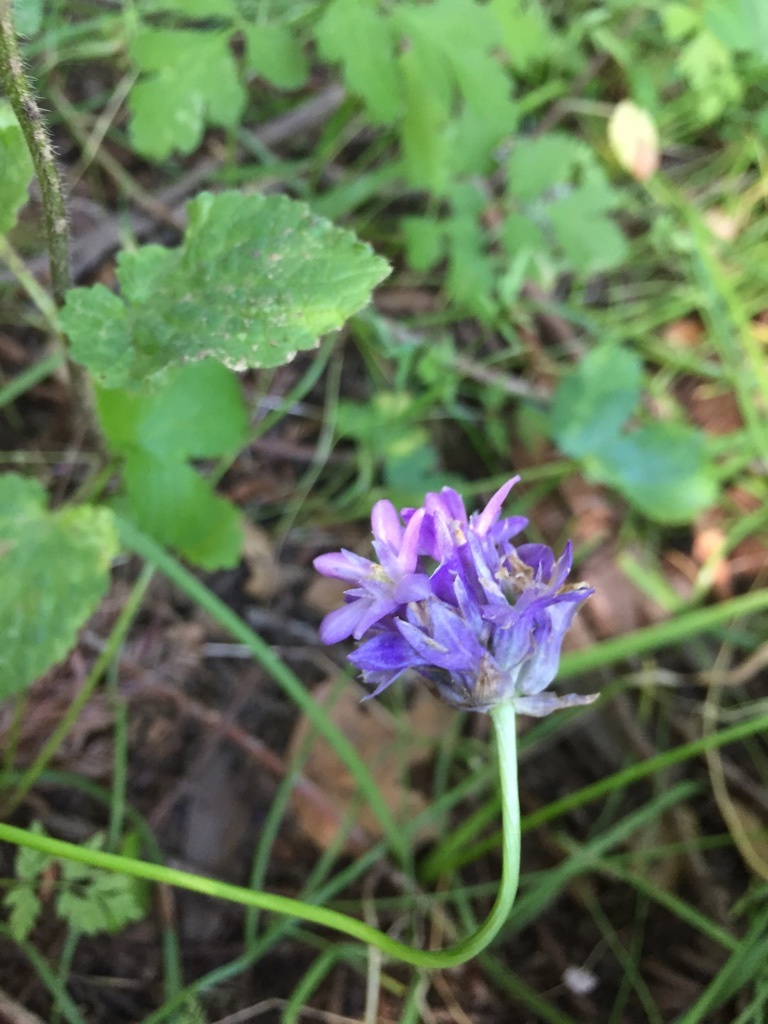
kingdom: Plantae
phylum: Tracheophyta
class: Liliopsida
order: Asparagales
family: Asparagaceae
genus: Dichelostemma
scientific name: Dichelostemma congestum
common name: Fork-tooth ookow
